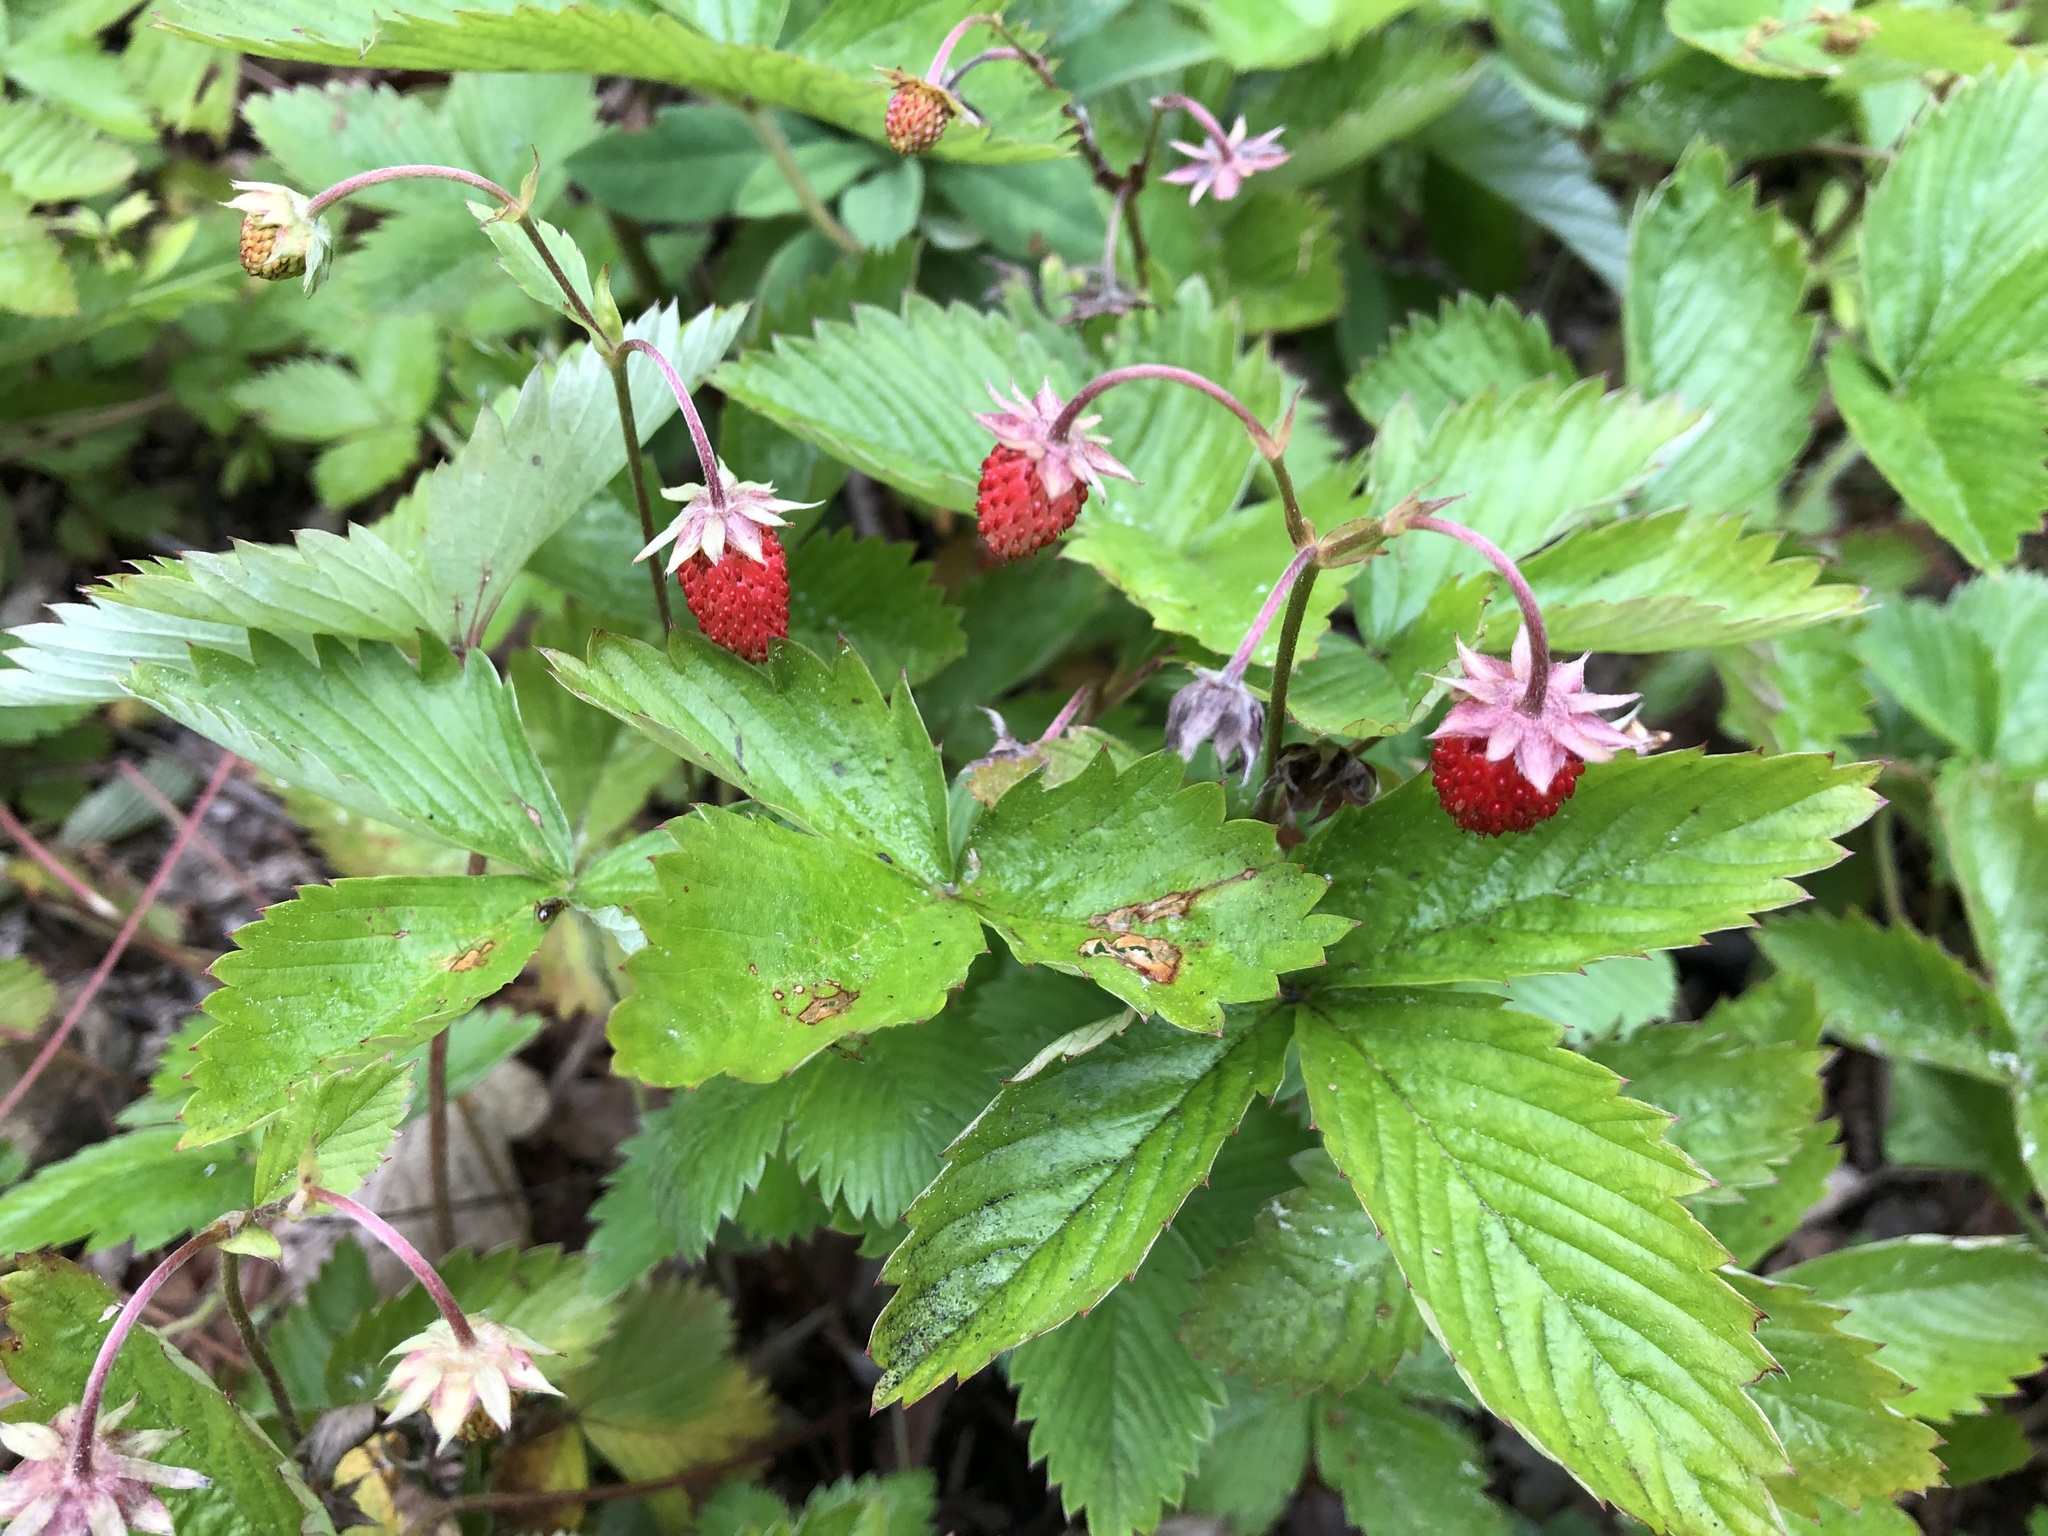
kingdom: Plantae
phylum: Tracheophyta
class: Magnoliopsida
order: Rosales
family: Rosaceae
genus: Fragaria
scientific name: Fragaria vesca
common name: Wild strawberry
